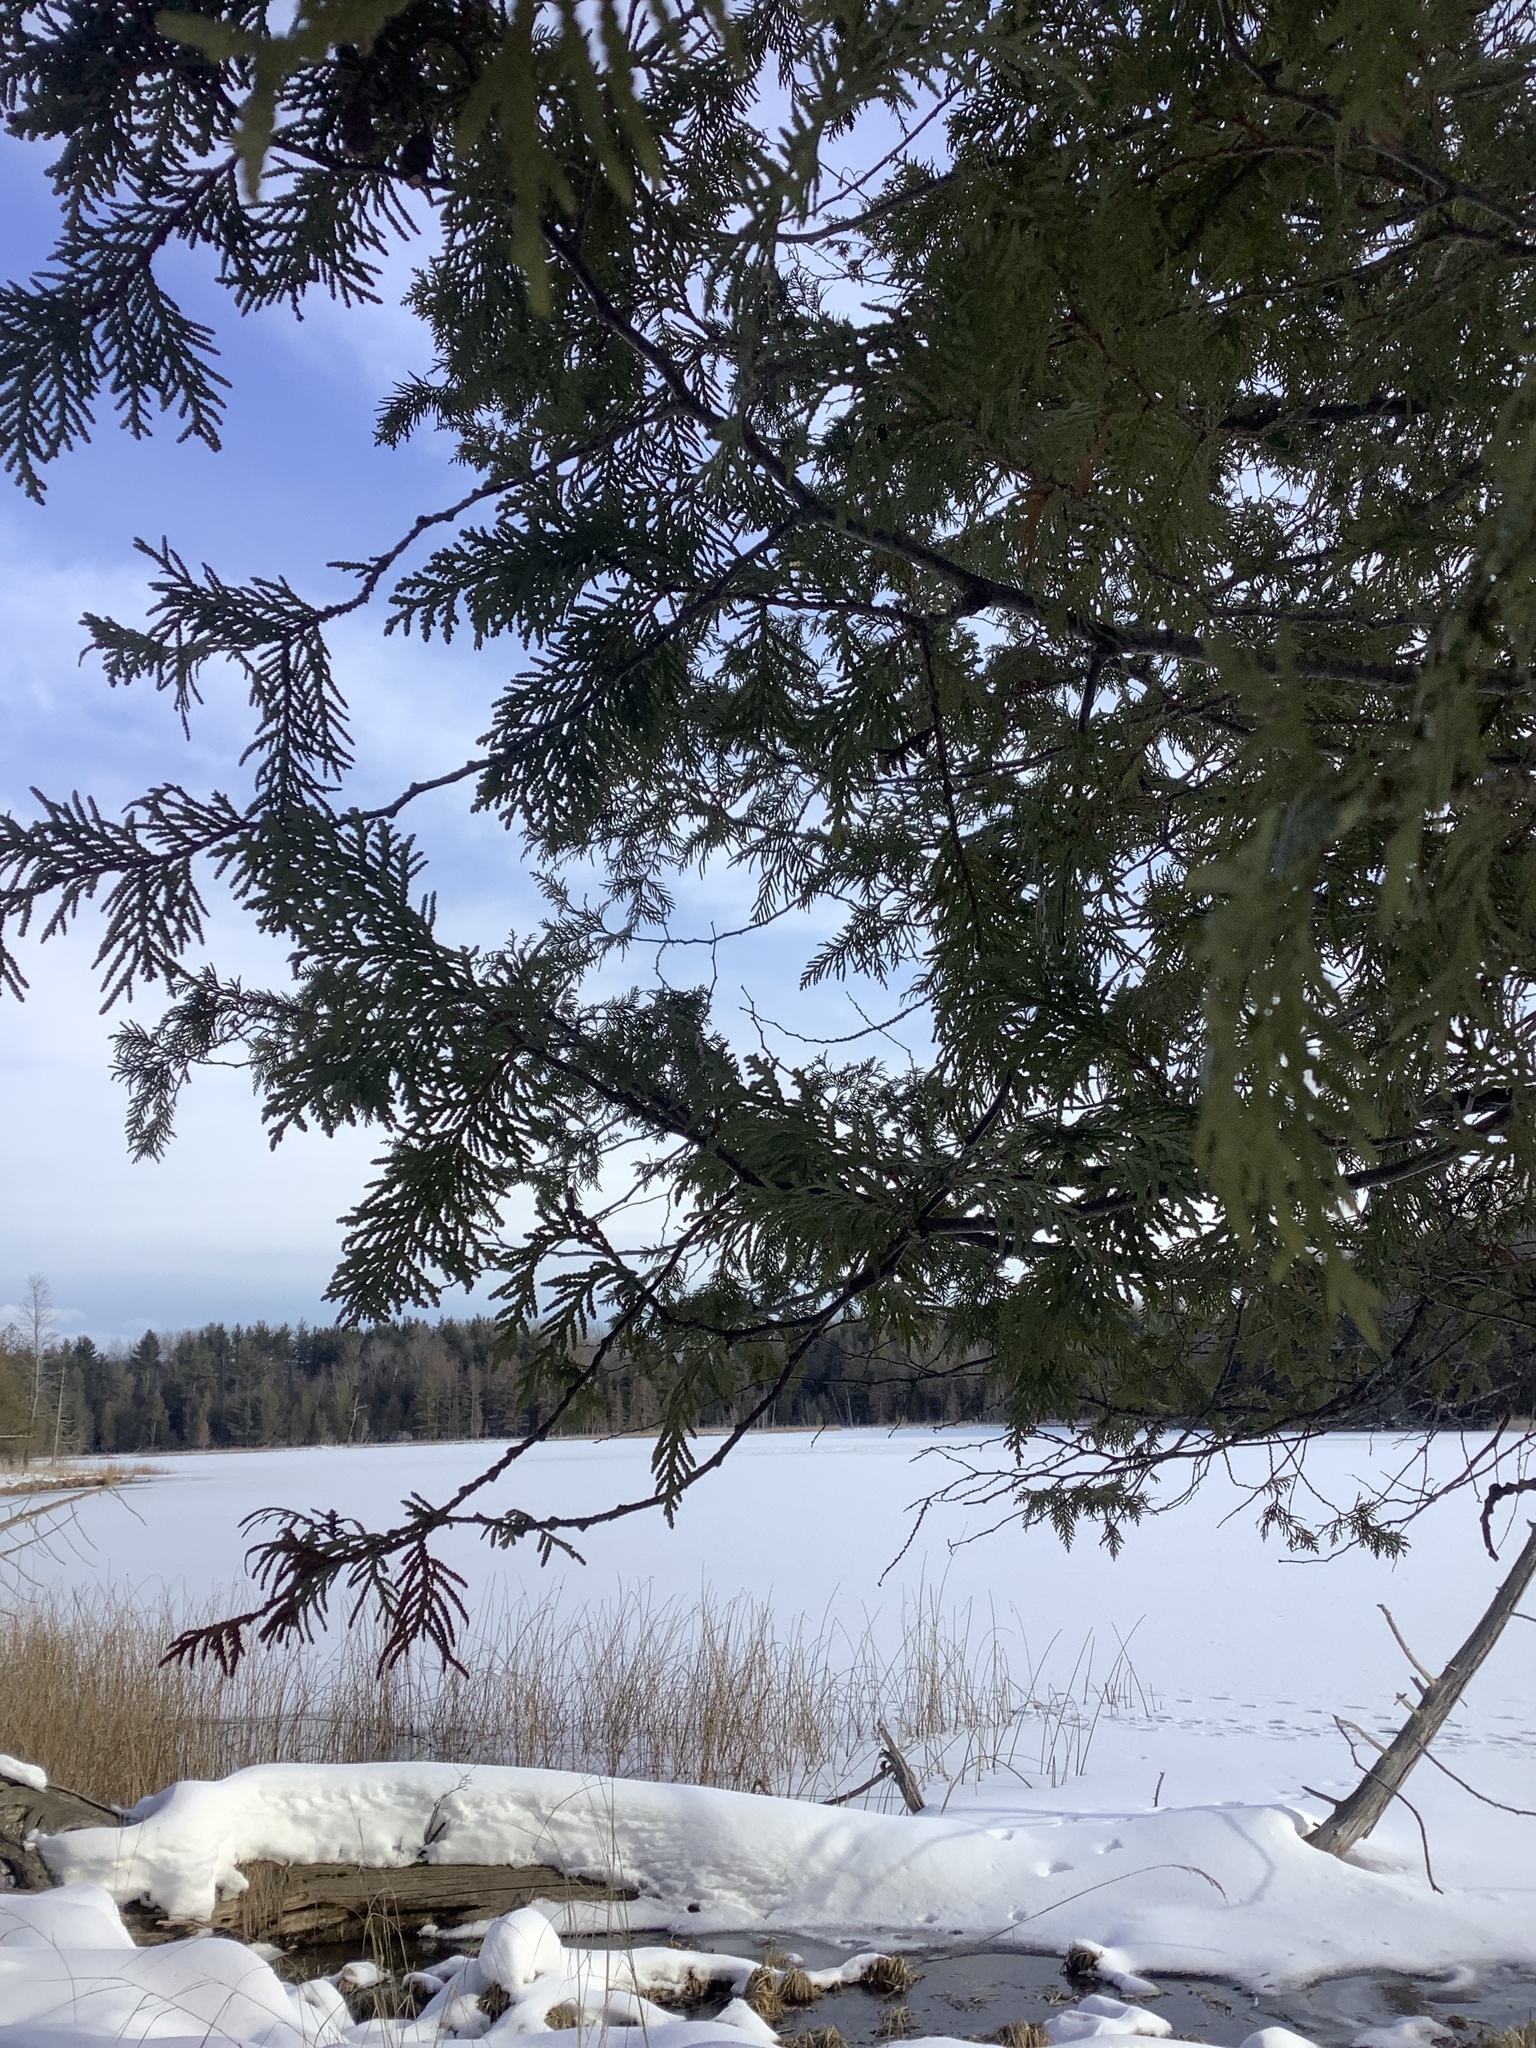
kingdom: Plantae
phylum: Tracheophyta
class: Pinopsida
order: Pinales
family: Cupressaceae
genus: Thuja
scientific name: Thuja occidentalis
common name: Northern white-cedar
